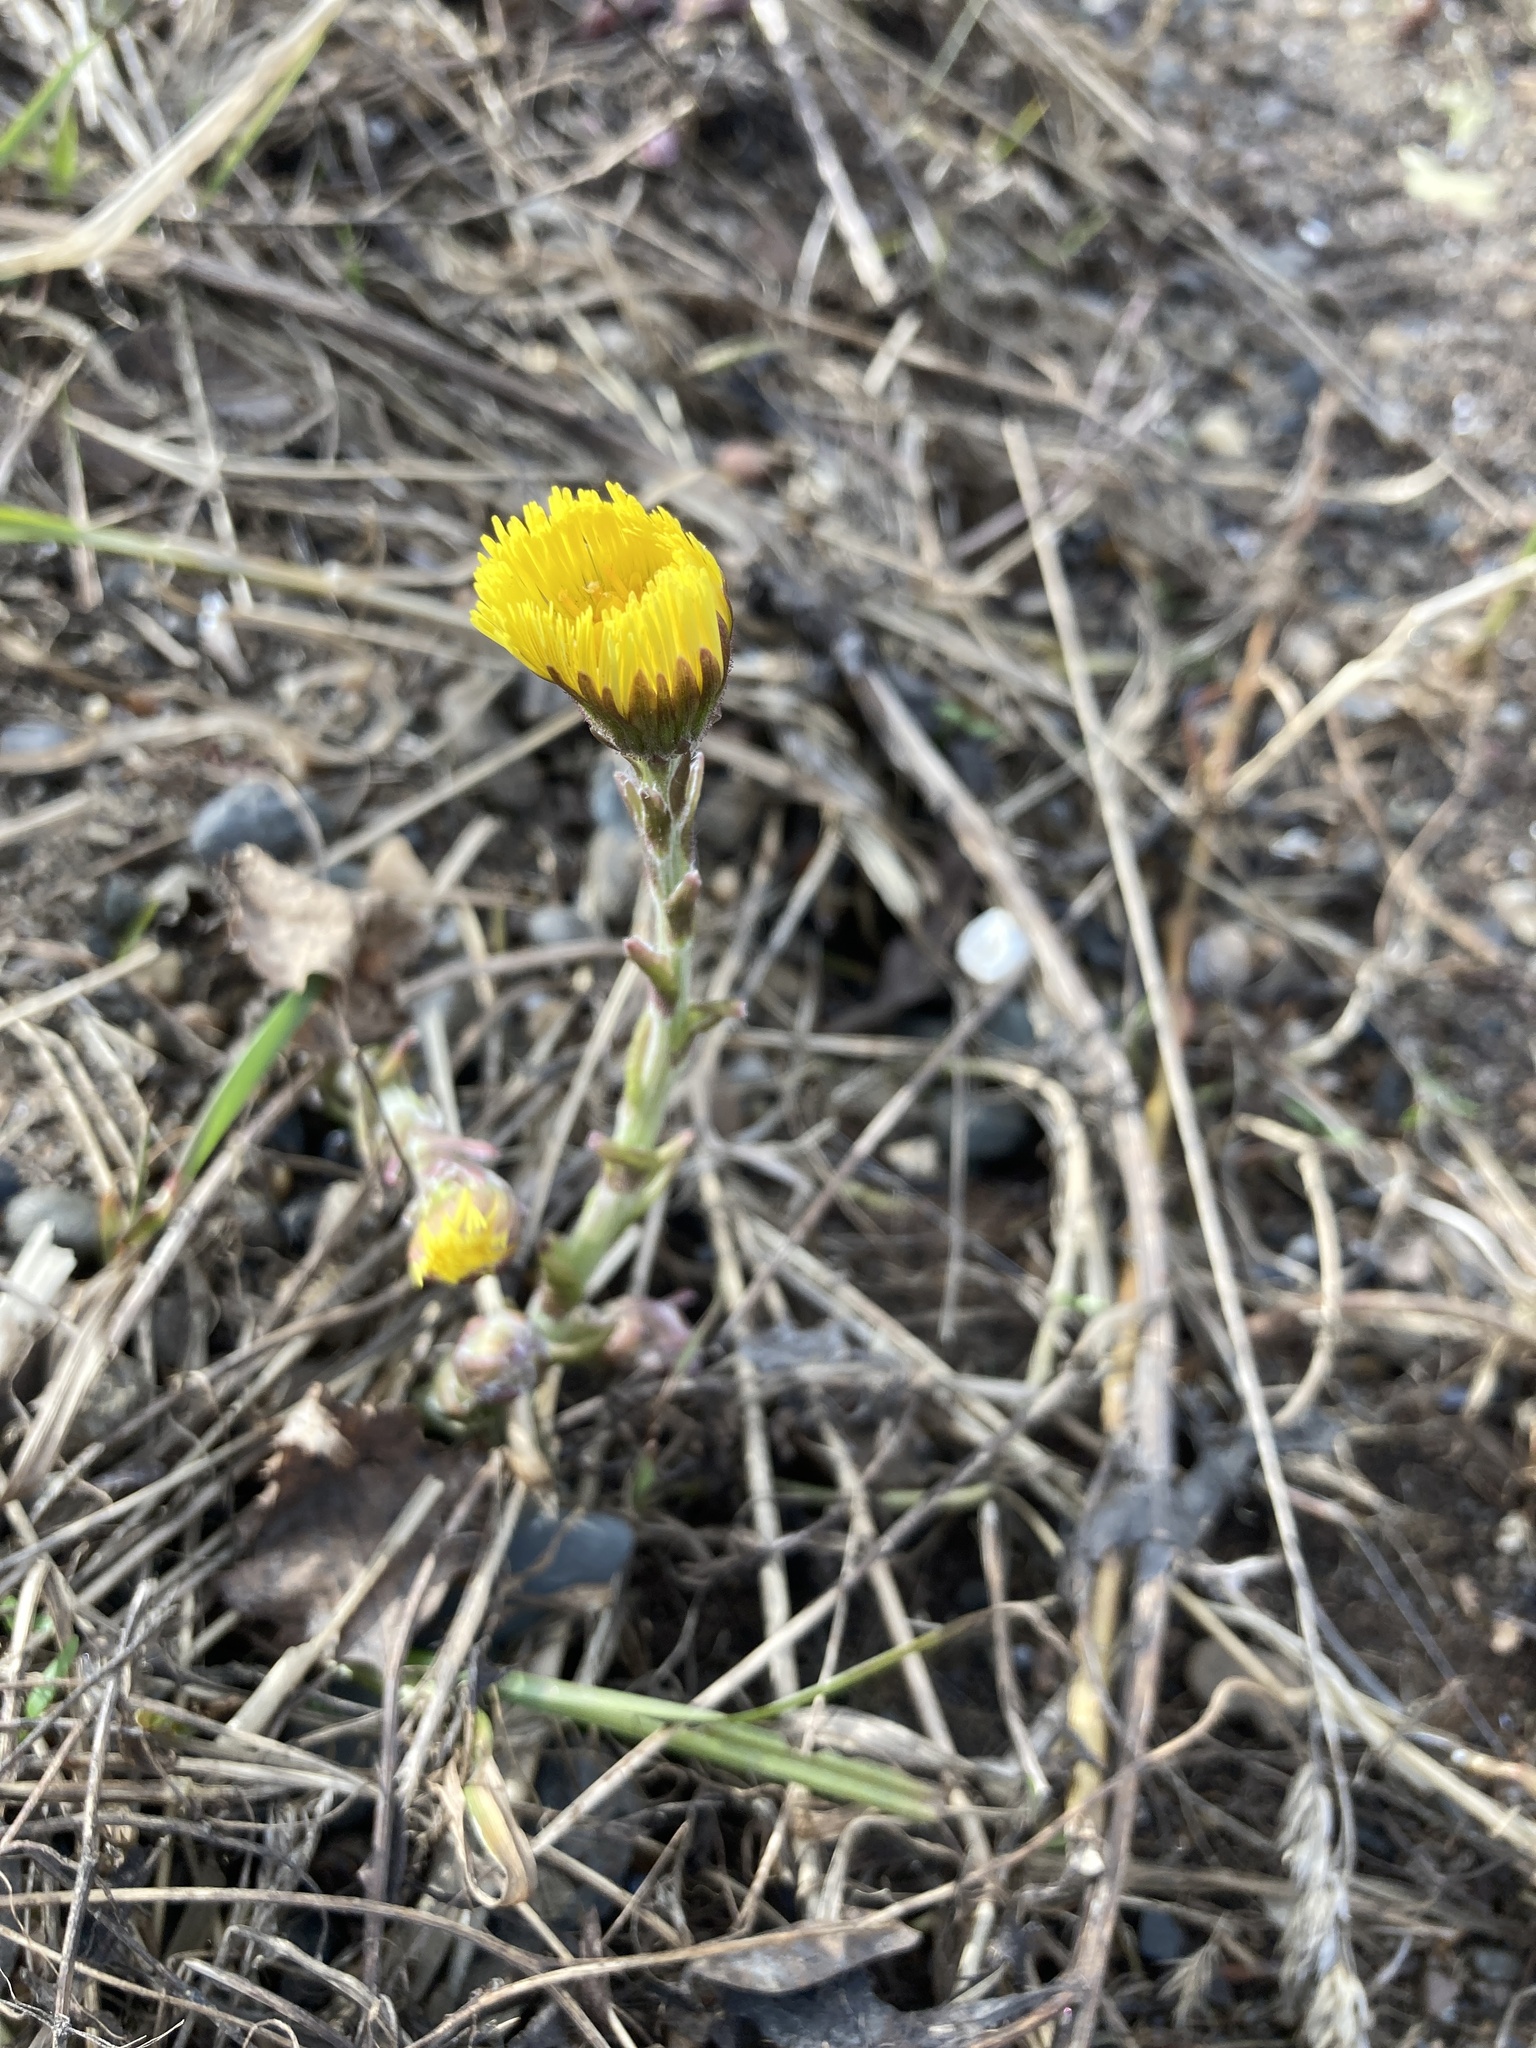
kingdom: Plantae
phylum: Tracheophyta
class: Magnoliopsida
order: Asterales
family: Asteraceae
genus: Tussilago
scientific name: Tussilago farfara
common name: Coltsfoot
